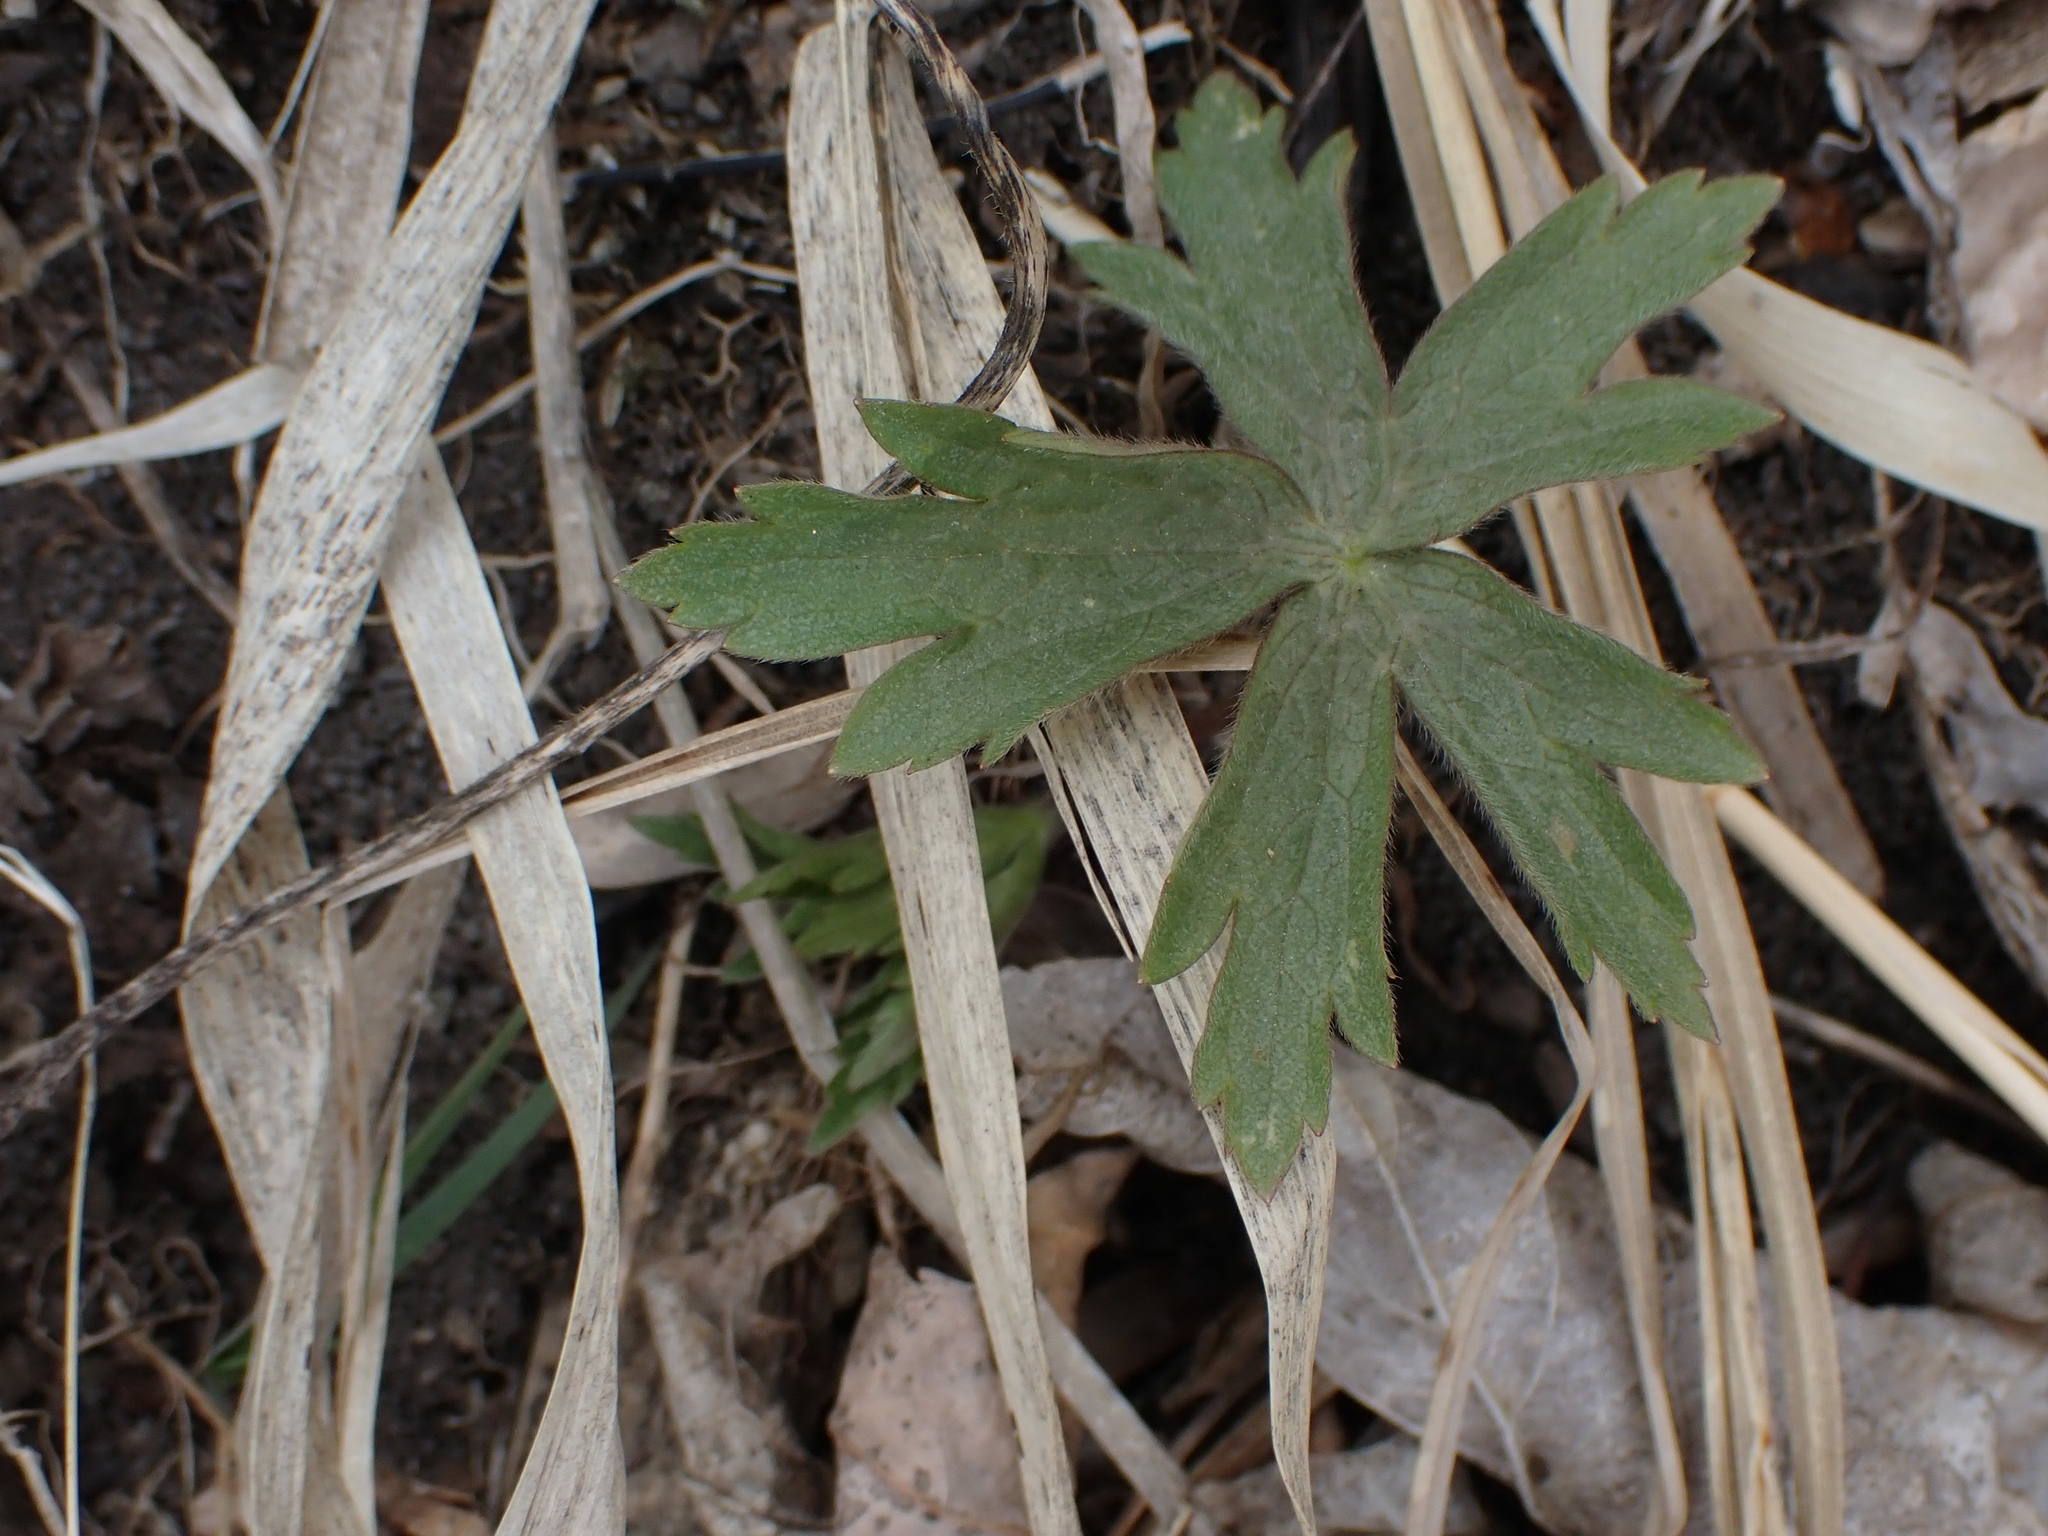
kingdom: Plantae
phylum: Tracheophyta
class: Magnoliopsida
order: Ranunculales
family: Ranunculaceae
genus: Anemonastrum
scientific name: Anemonastrum canadense
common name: Canada anemone
